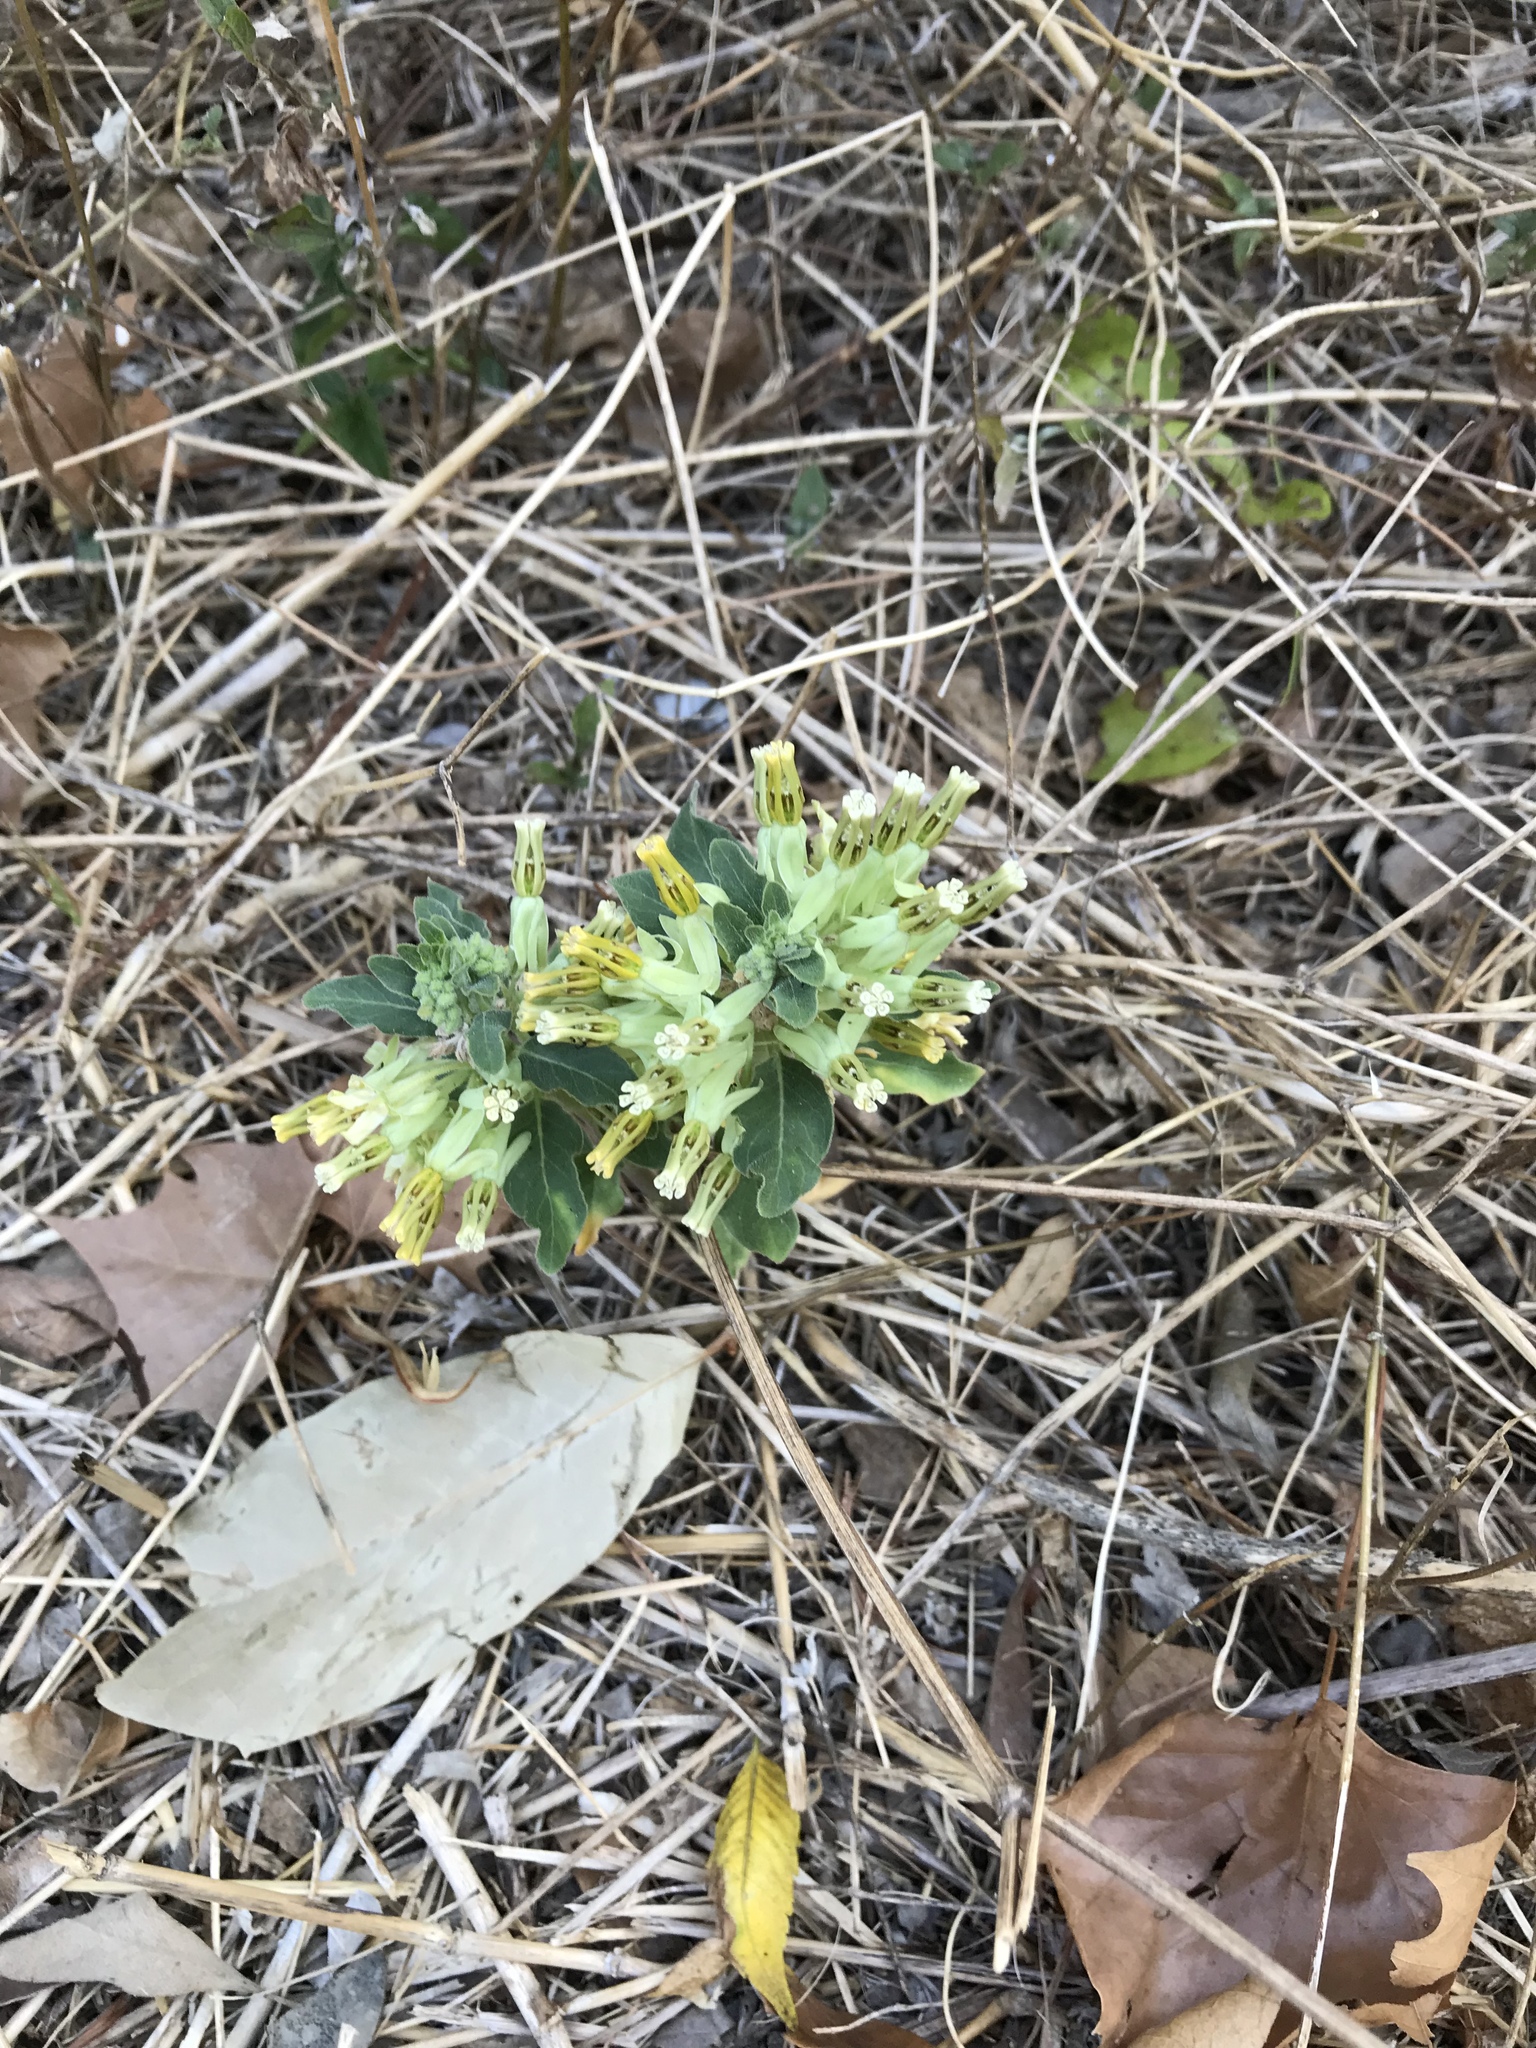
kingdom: Plantae
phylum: Tracheophyta
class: Magnoliopsida
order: Gentianales
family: Apocynaceae
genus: Asclepias
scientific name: Asclepias oenotheroides
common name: Zizotes milkweed
